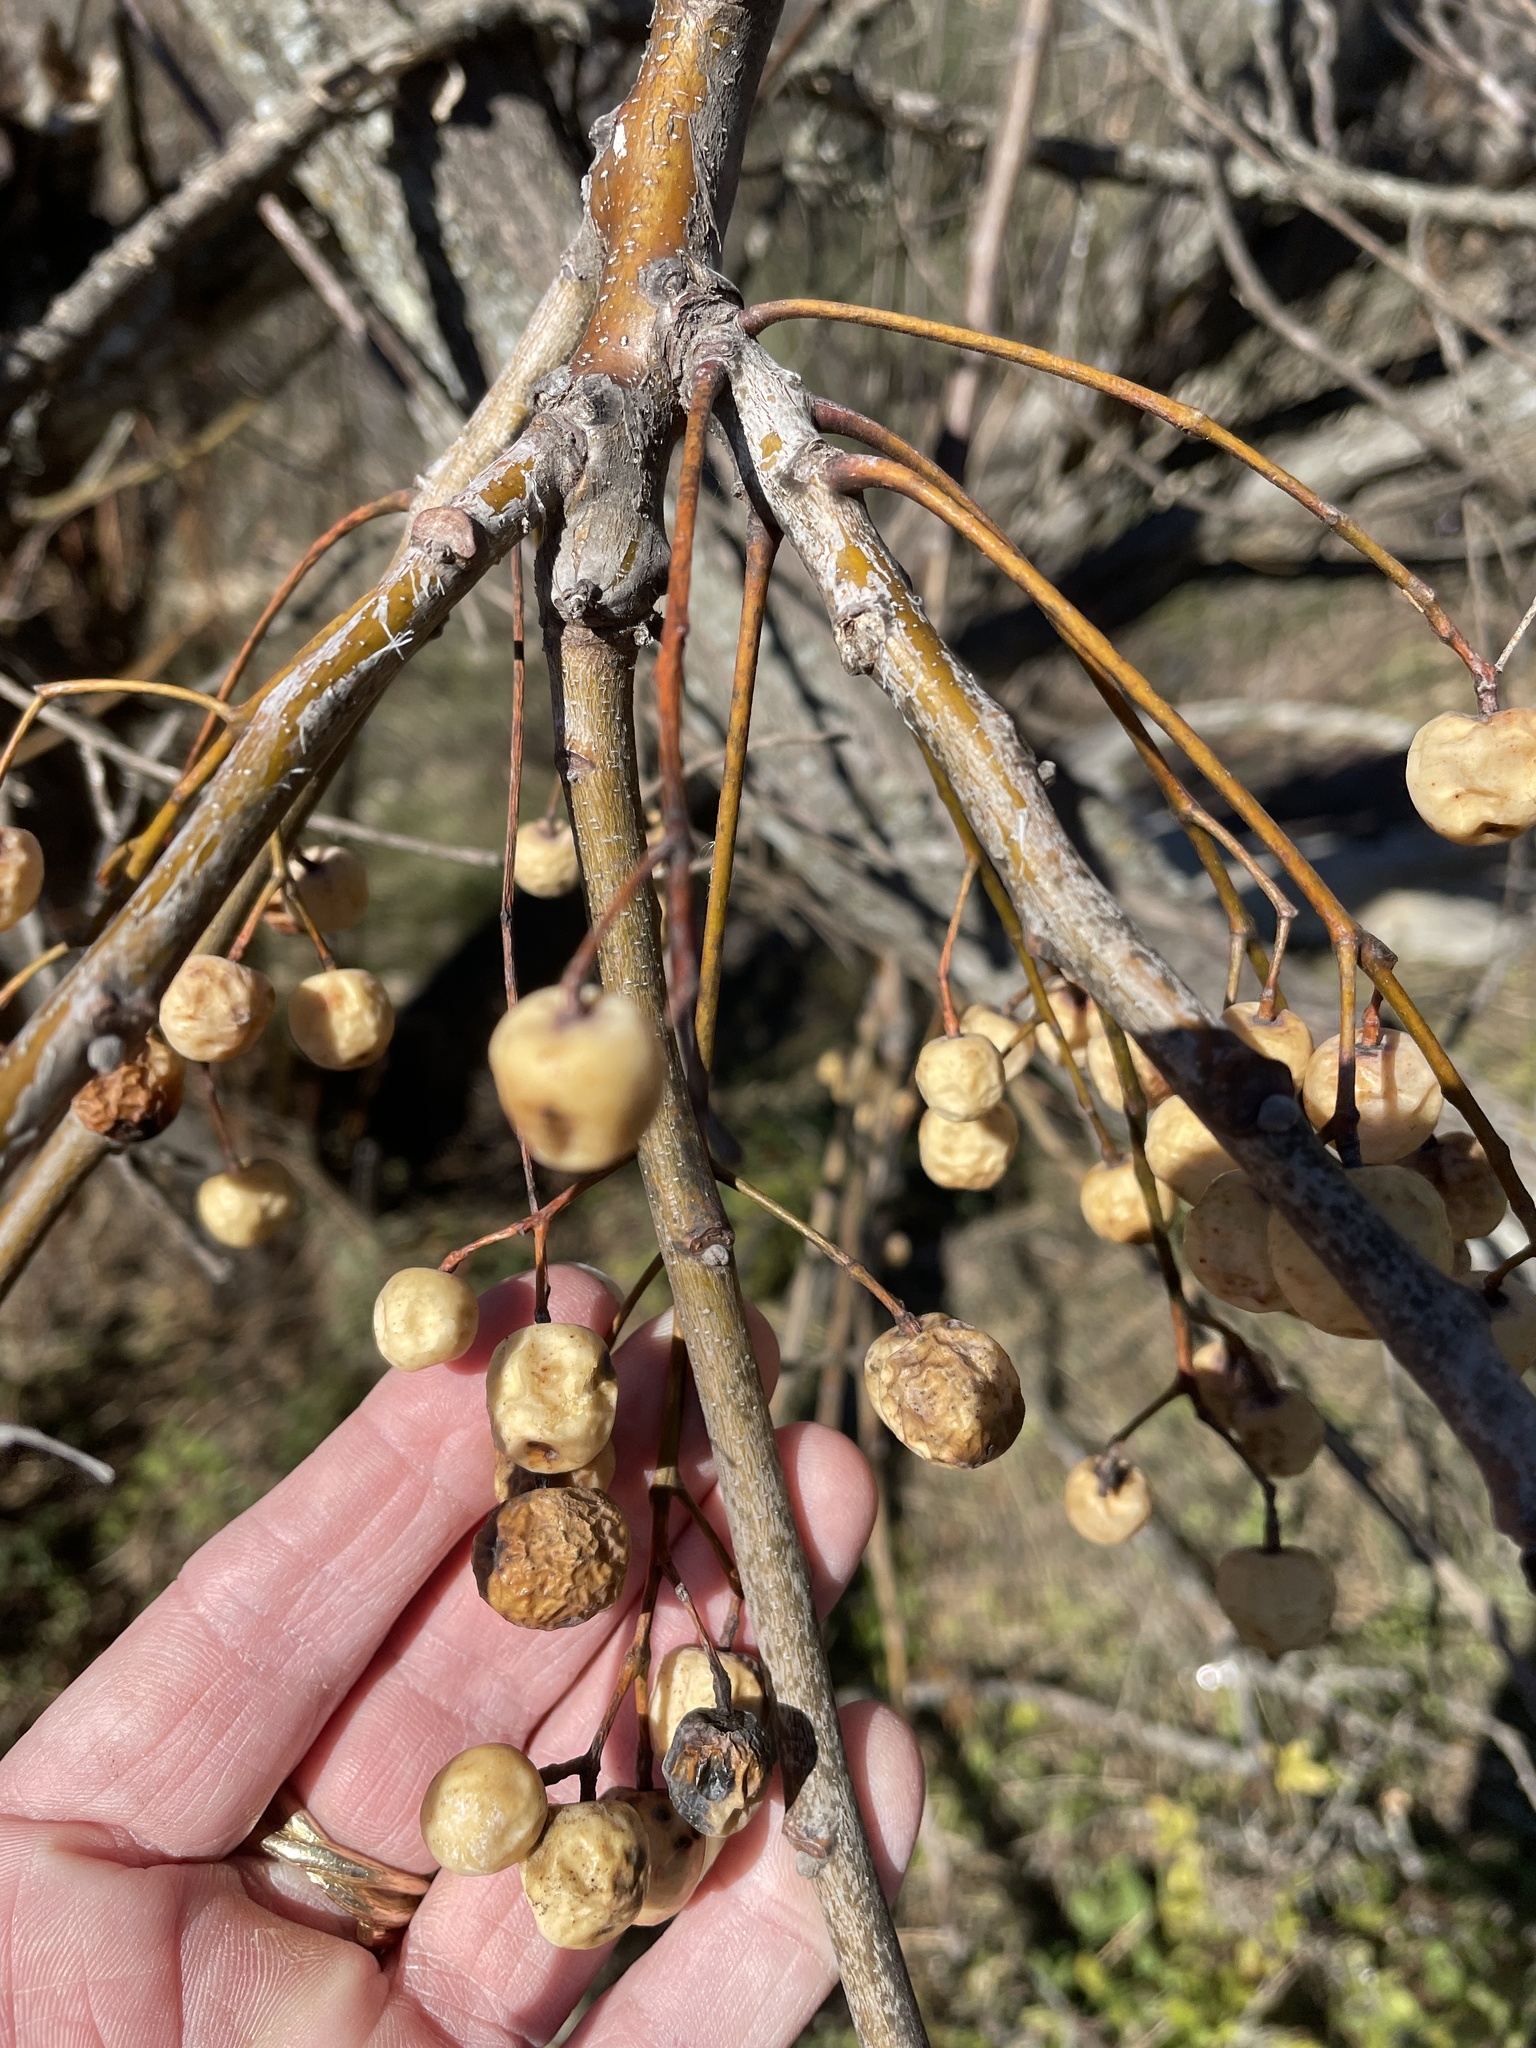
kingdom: Plantae
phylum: Tracheophyta
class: Magnoliopsida
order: Sapindales
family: Meliaceae
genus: Melia
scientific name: Melia azedarach
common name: Chinaberrytree
